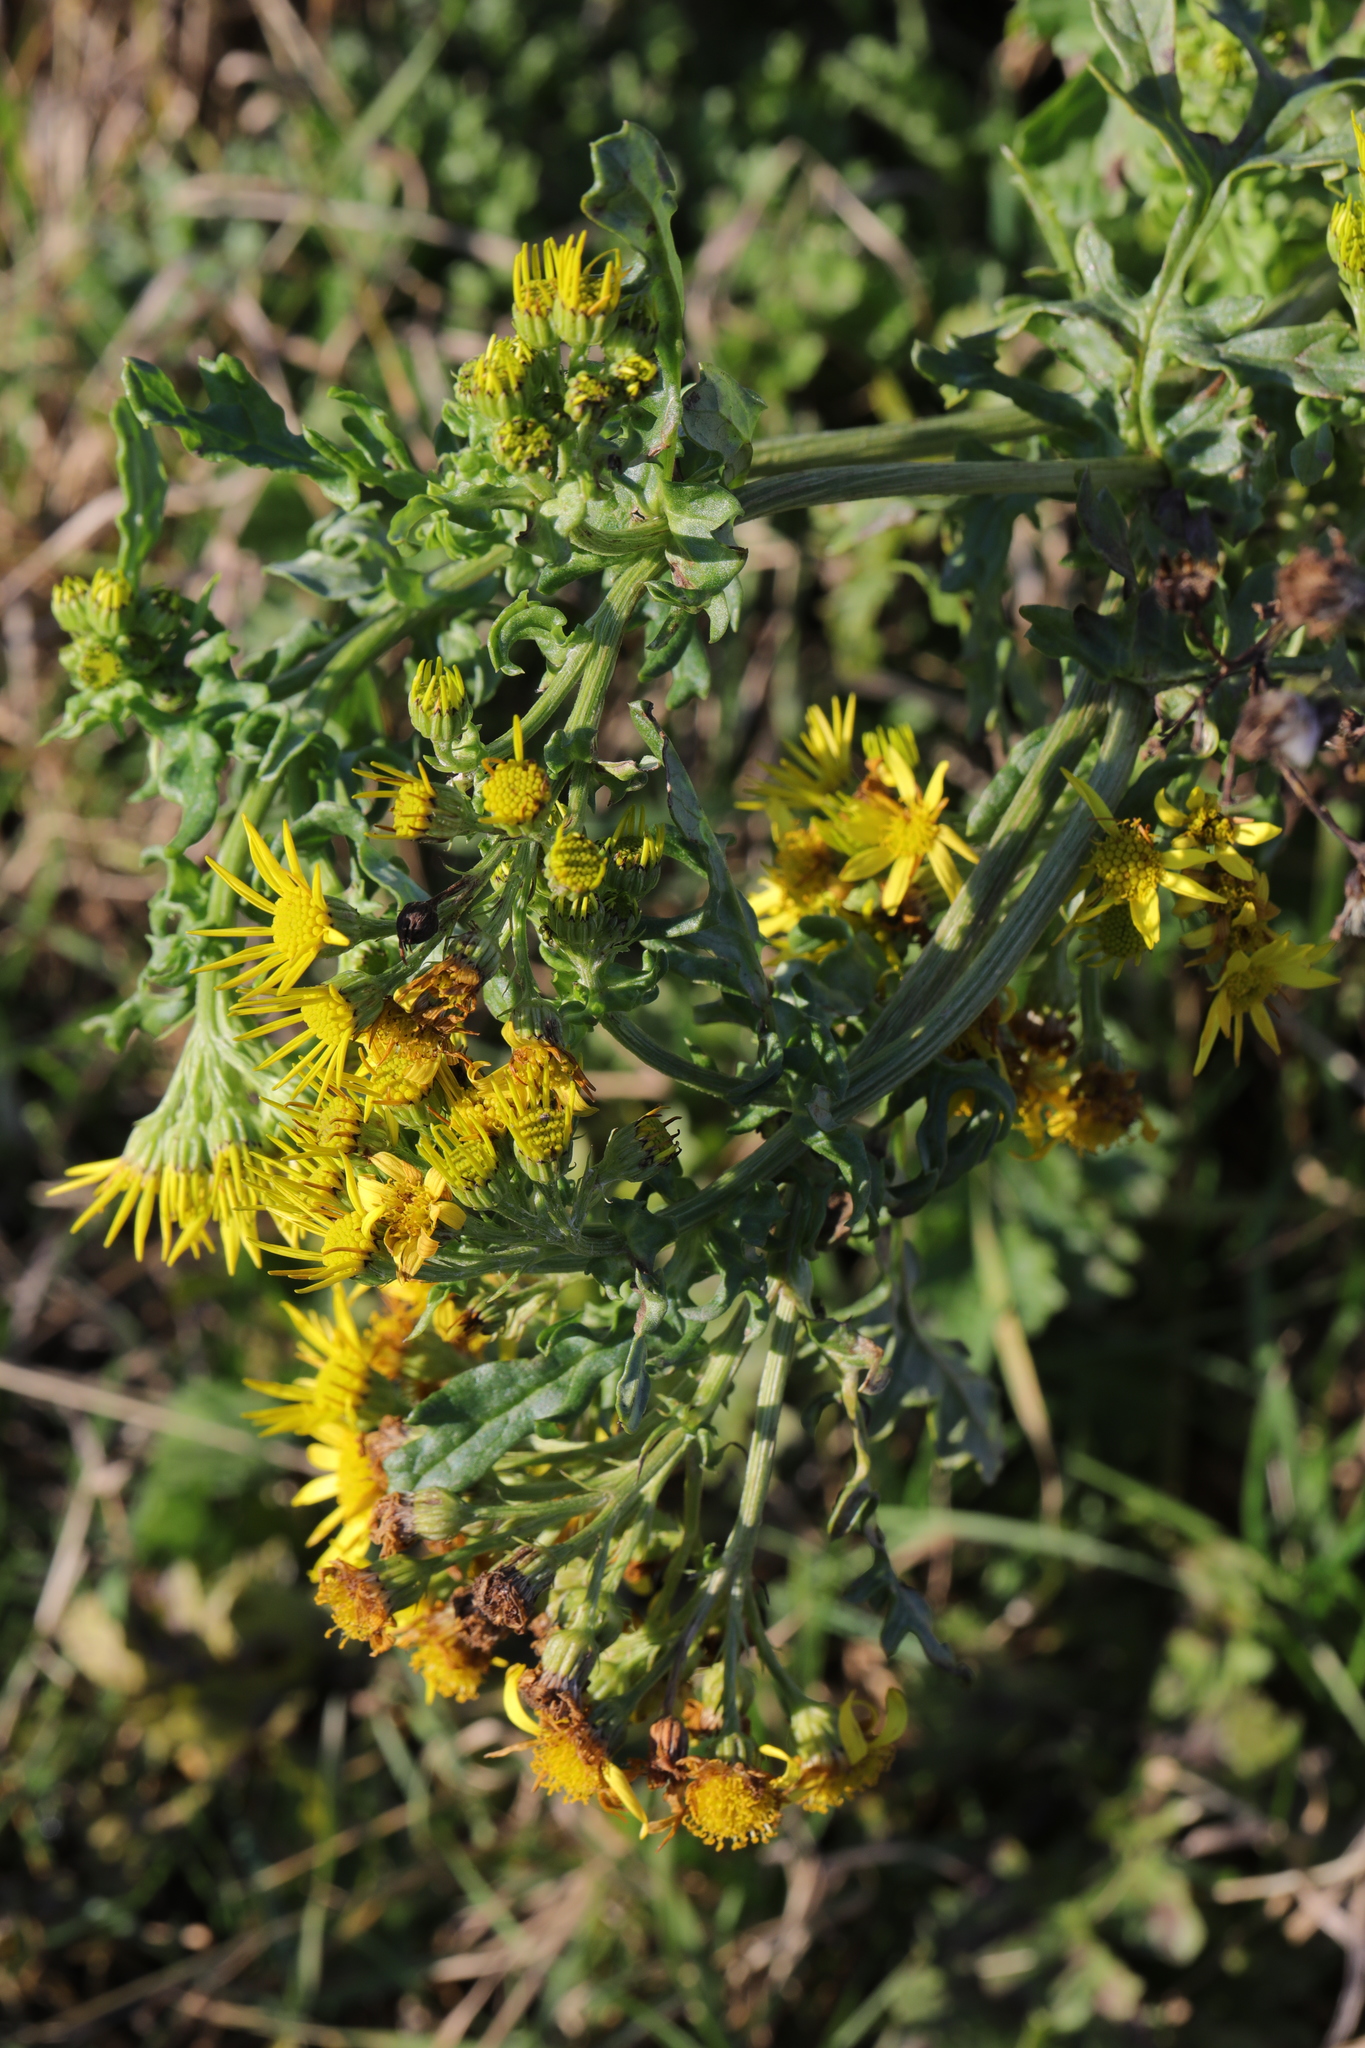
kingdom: Plantae
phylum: Tracheophyta
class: Magnoliopsida
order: Asterales
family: Asteraceae
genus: Jacobaea
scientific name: Jacobaea vulgaris
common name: Stinking willie
